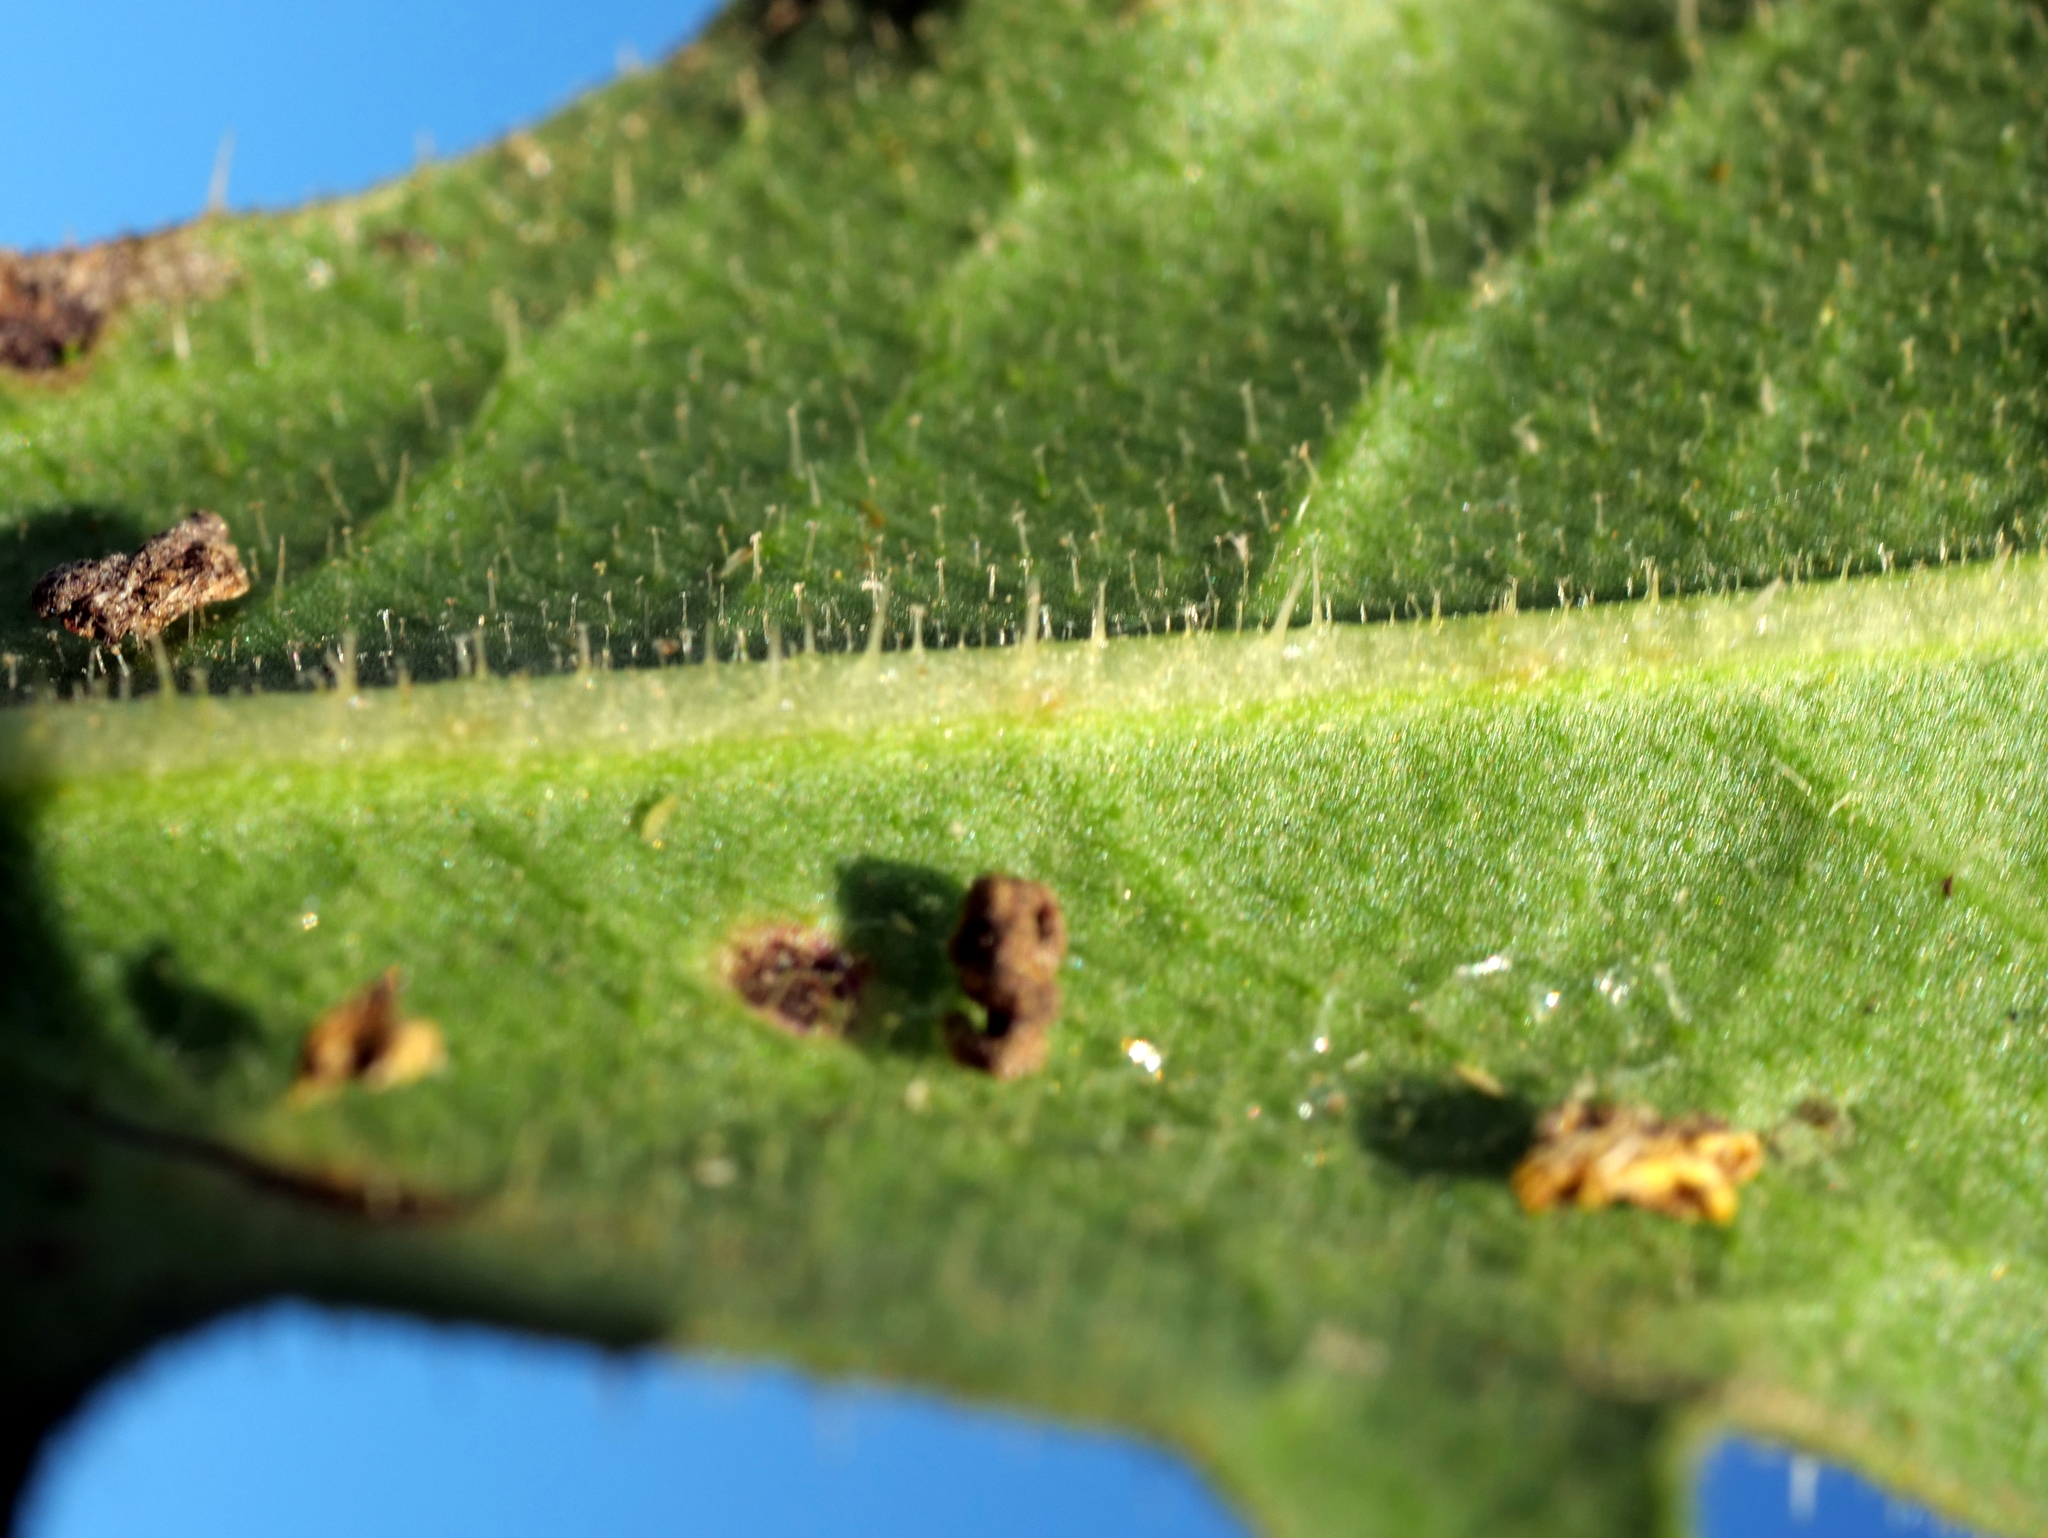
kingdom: Plantae
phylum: Tracheophyta
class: Magnoliopsida
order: Asterales
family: Asteraceae
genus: Picris
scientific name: Picris hieracioides
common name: Hawkweed oxtongue
